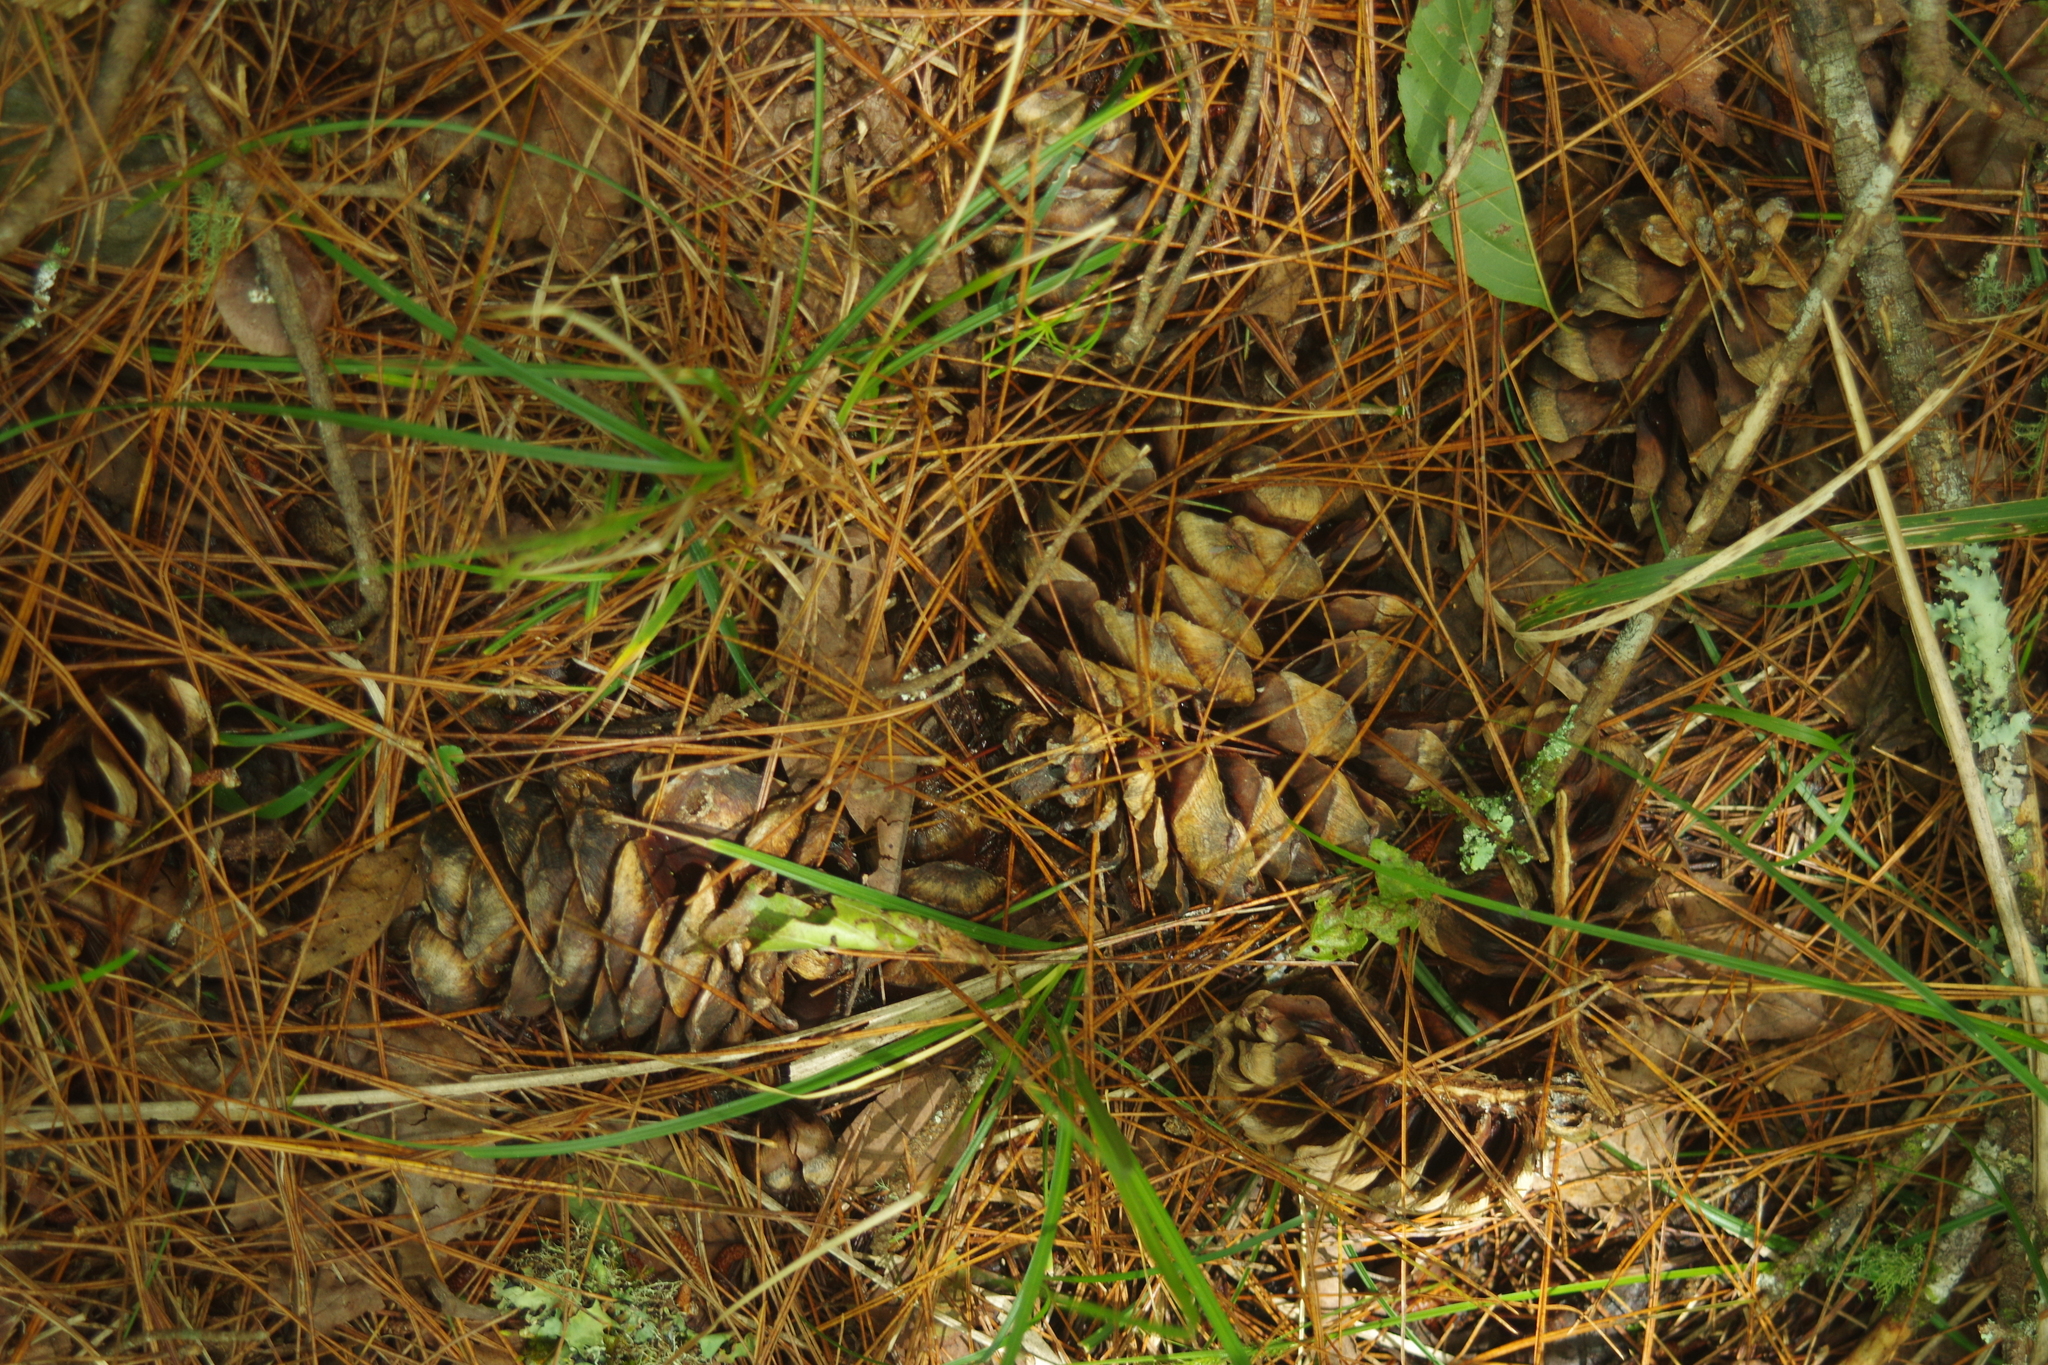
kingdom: Plantae
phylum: Tracheophyta
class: Pinopsida
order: Pinales
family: Pinaceae
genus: Pinus
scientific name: Pinus armandii
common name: Armand's pine
